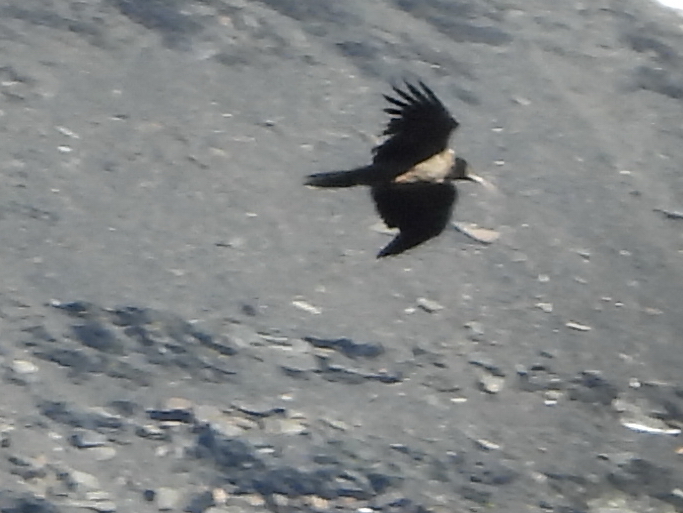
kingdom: Animalia
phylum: Chordata
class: Aves
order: Accipitriformes
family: Accipitridae
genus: Gypaetus
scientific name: Gypaetus barbatus
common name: Bearded vulture
